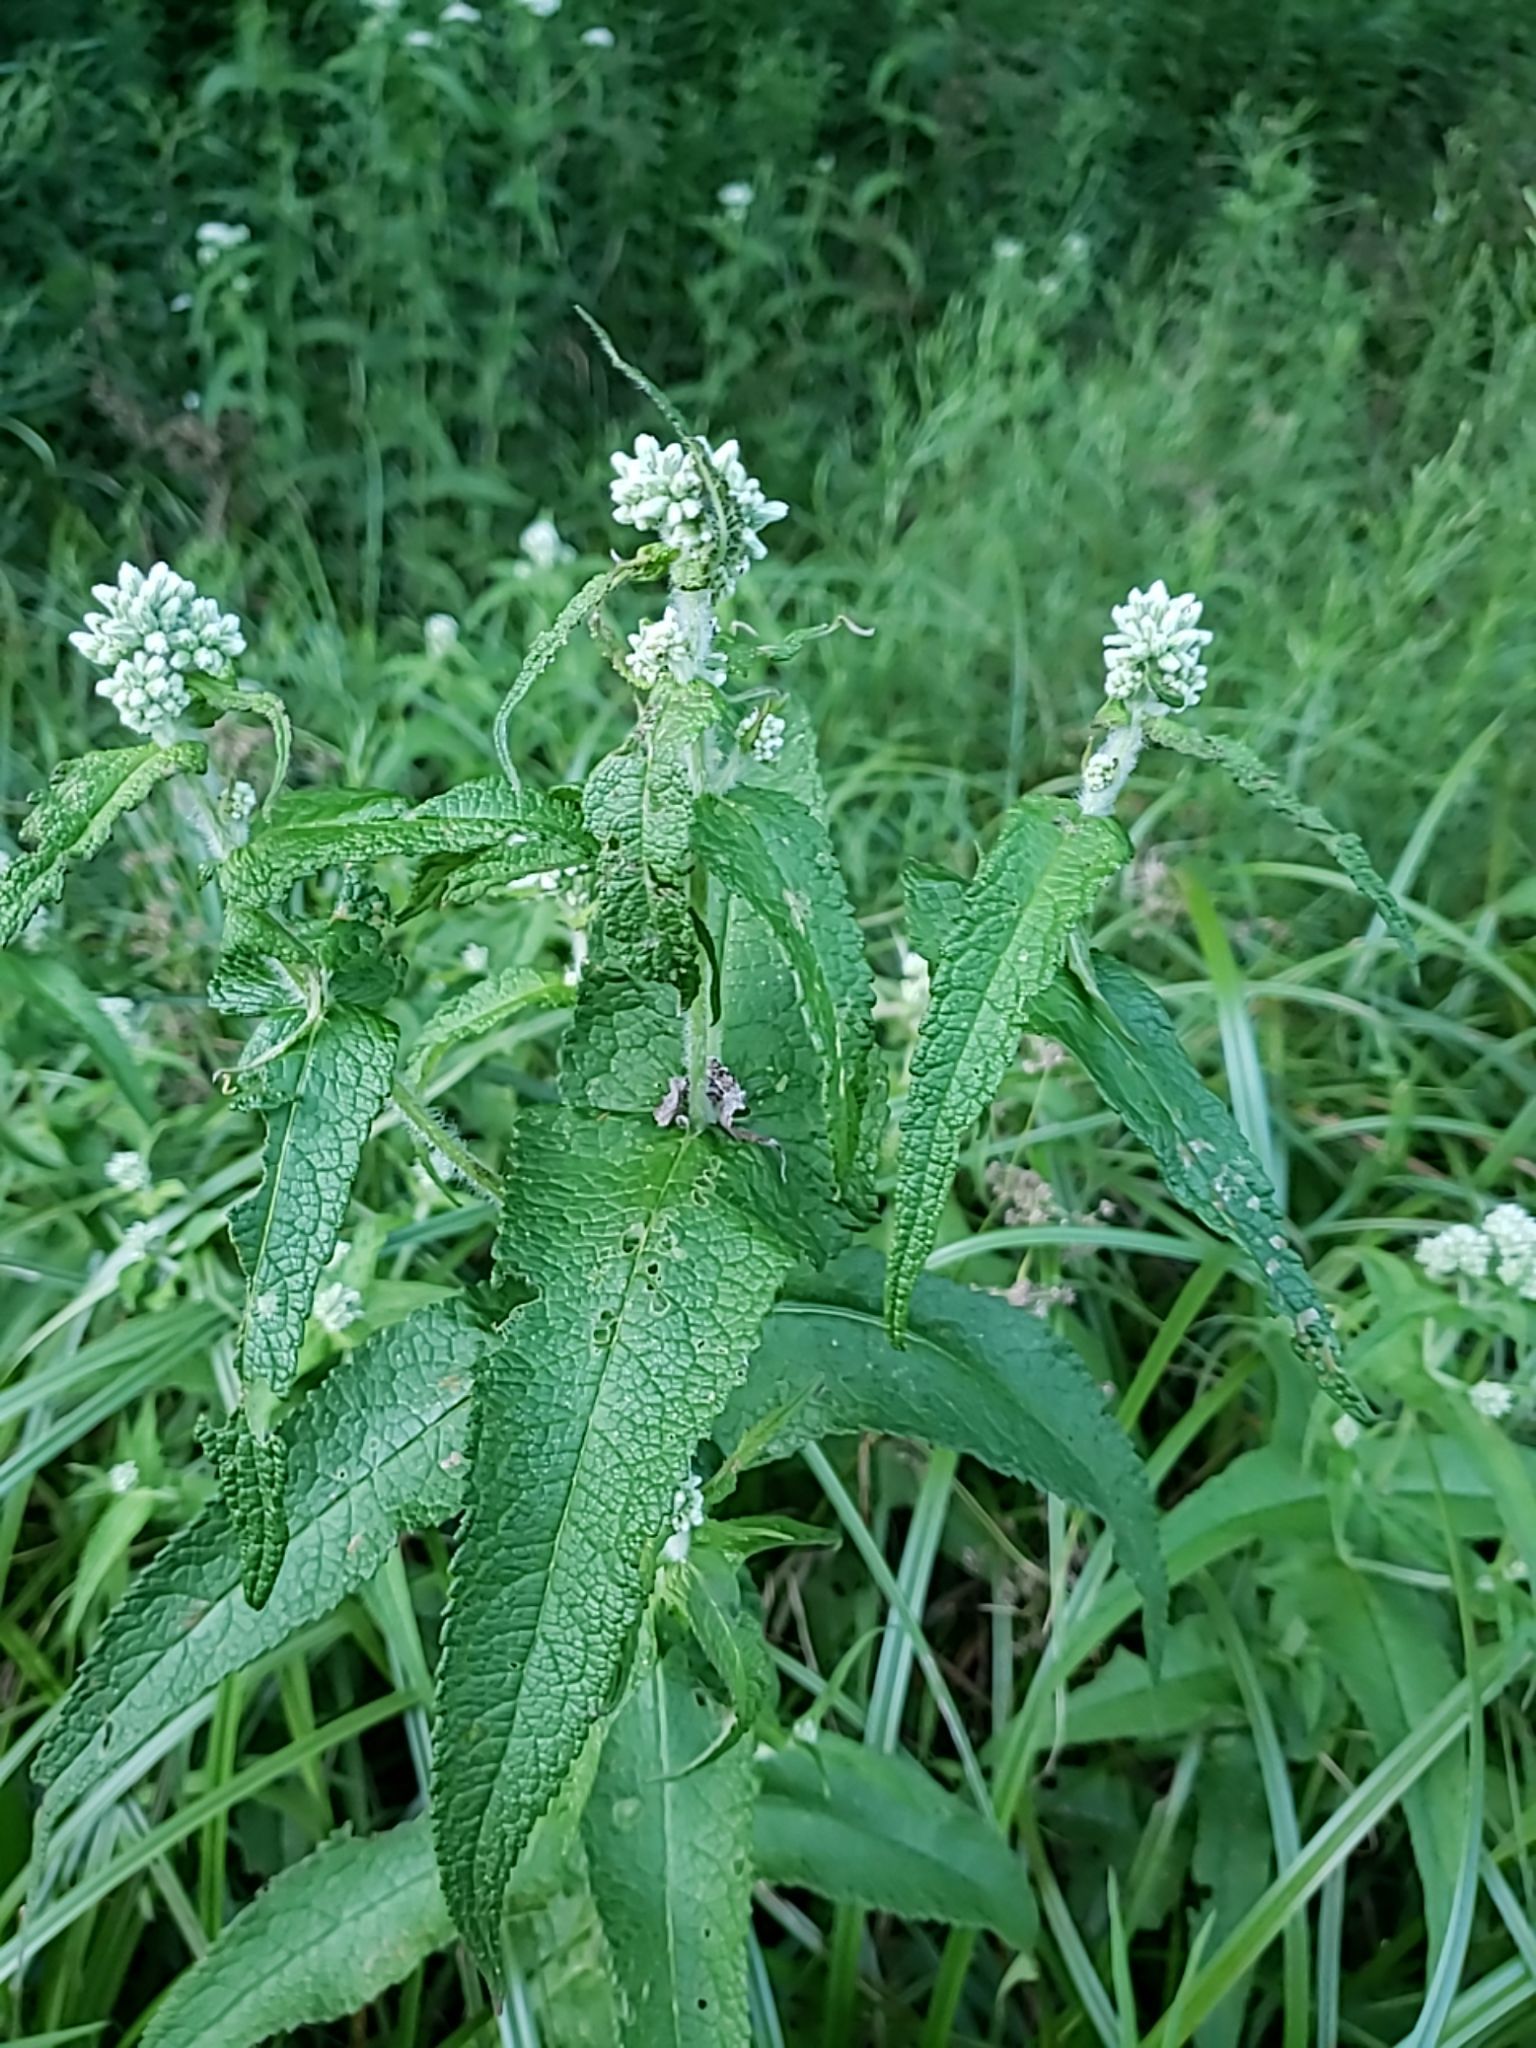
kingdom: Plantae
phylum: Tracheophyta
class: Magnoliopsida
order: Asterales
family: Asteraceae
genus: Eupatorium
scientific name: Eupatorium perfoliatum
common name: Boneset
